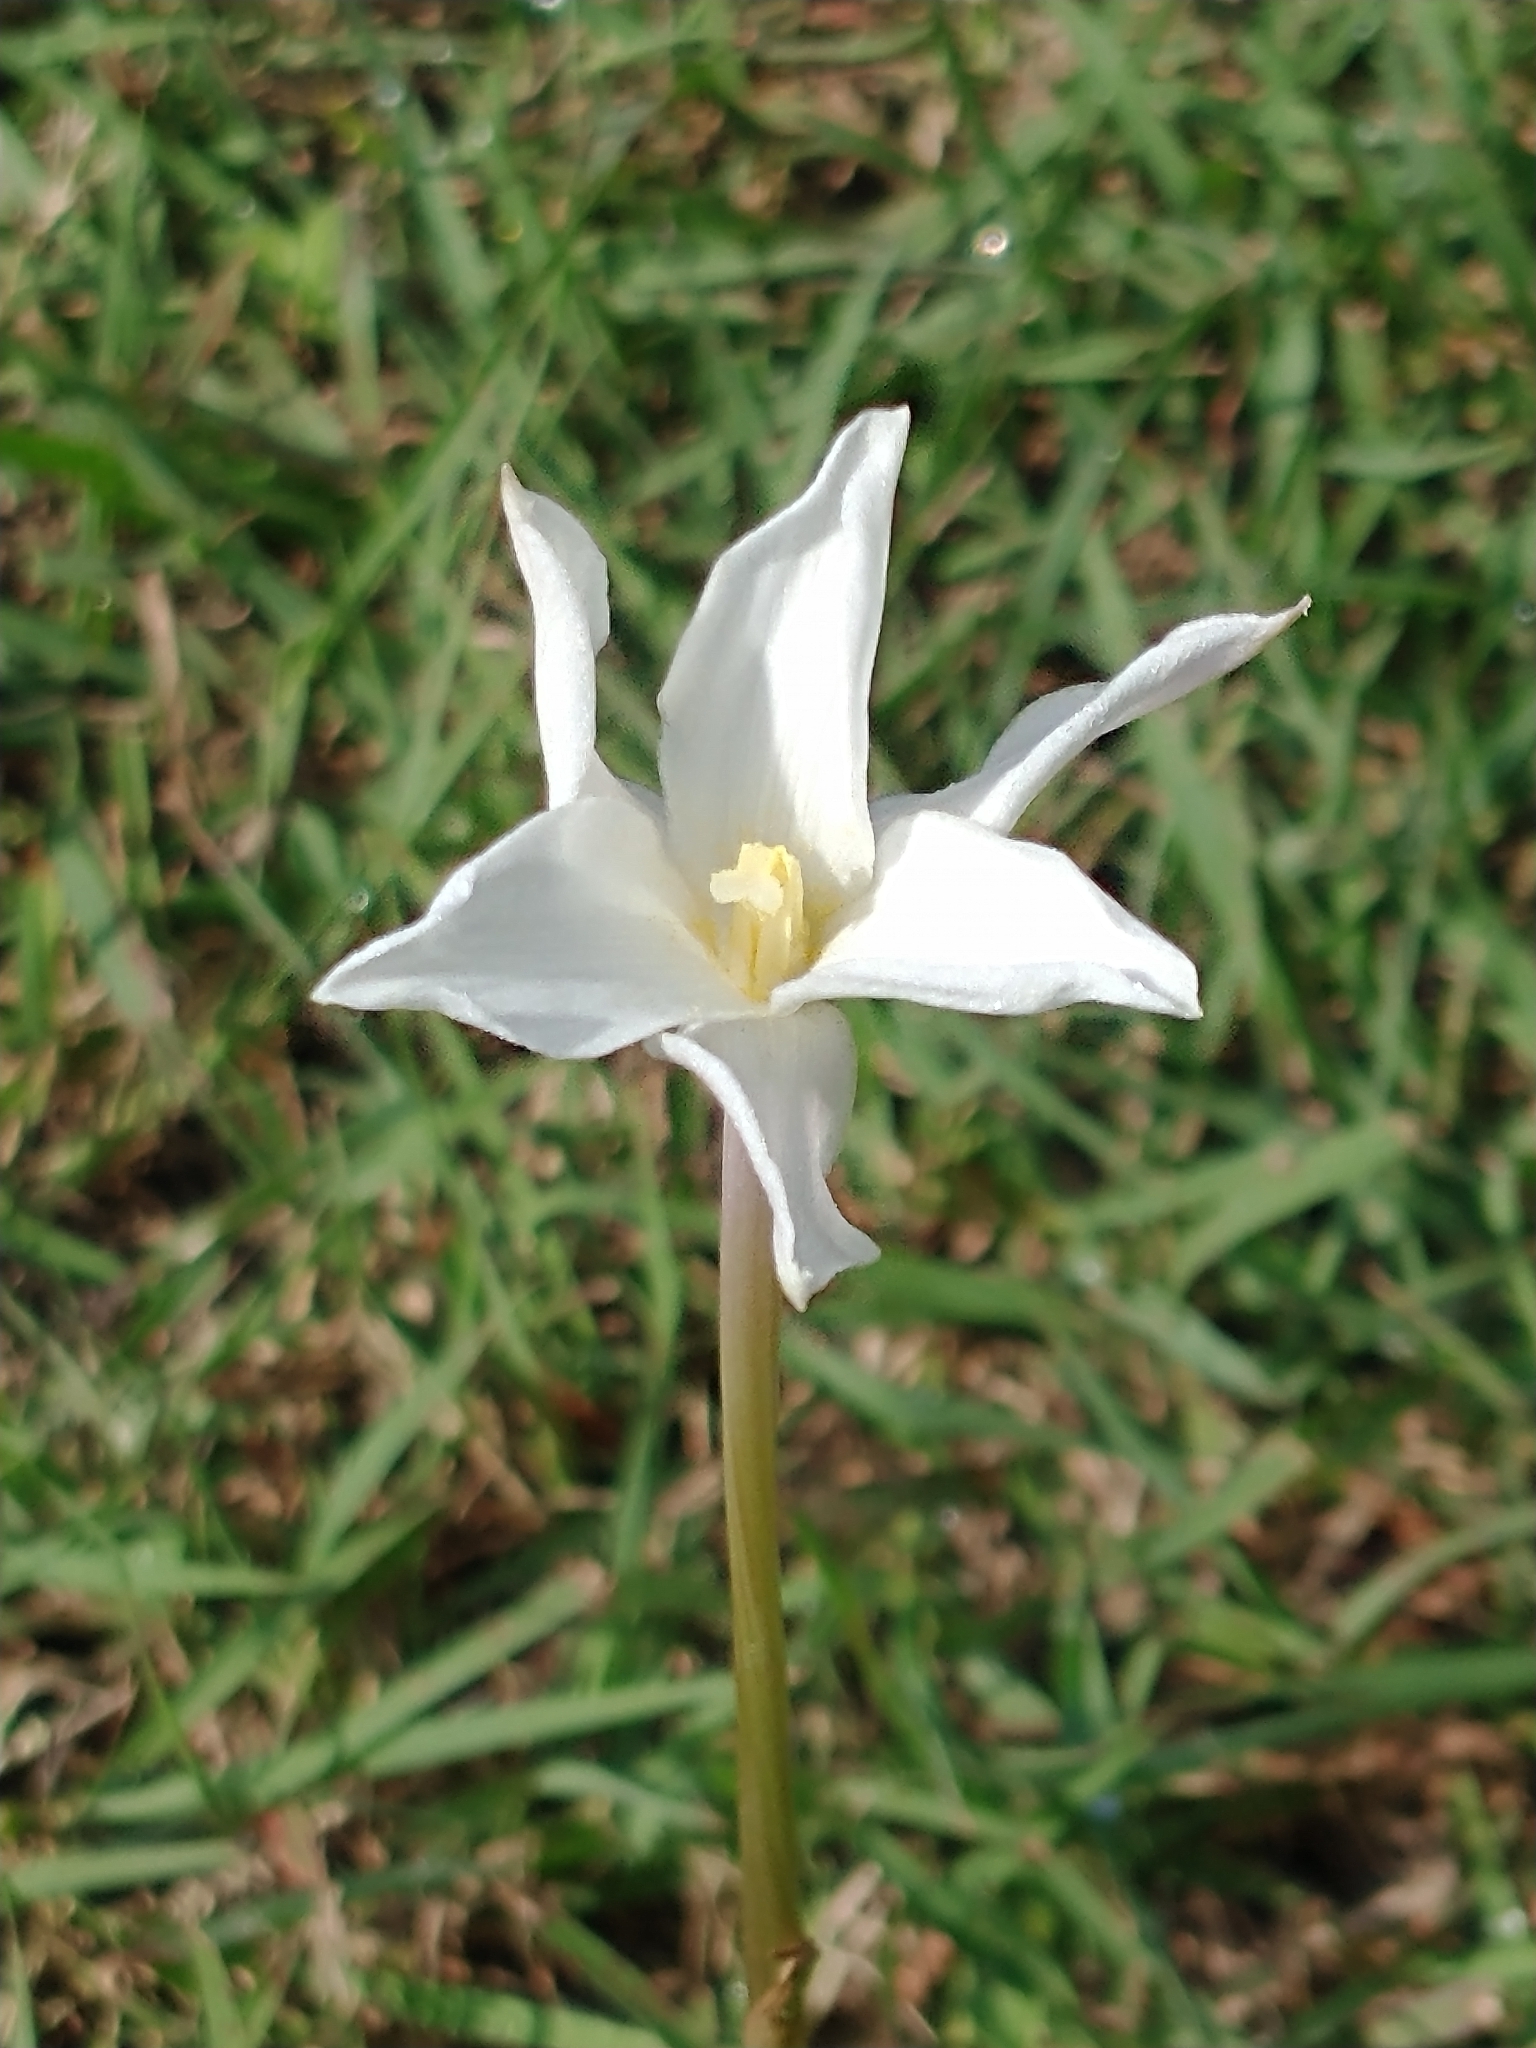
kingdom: Plantae
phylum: Tracheophyta
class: Liliopsida
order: Asparagales
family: Amaryllidaceae
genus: Zephyranthes
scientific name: Zephyranthes chlorosolen
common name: Evening rain-lily
